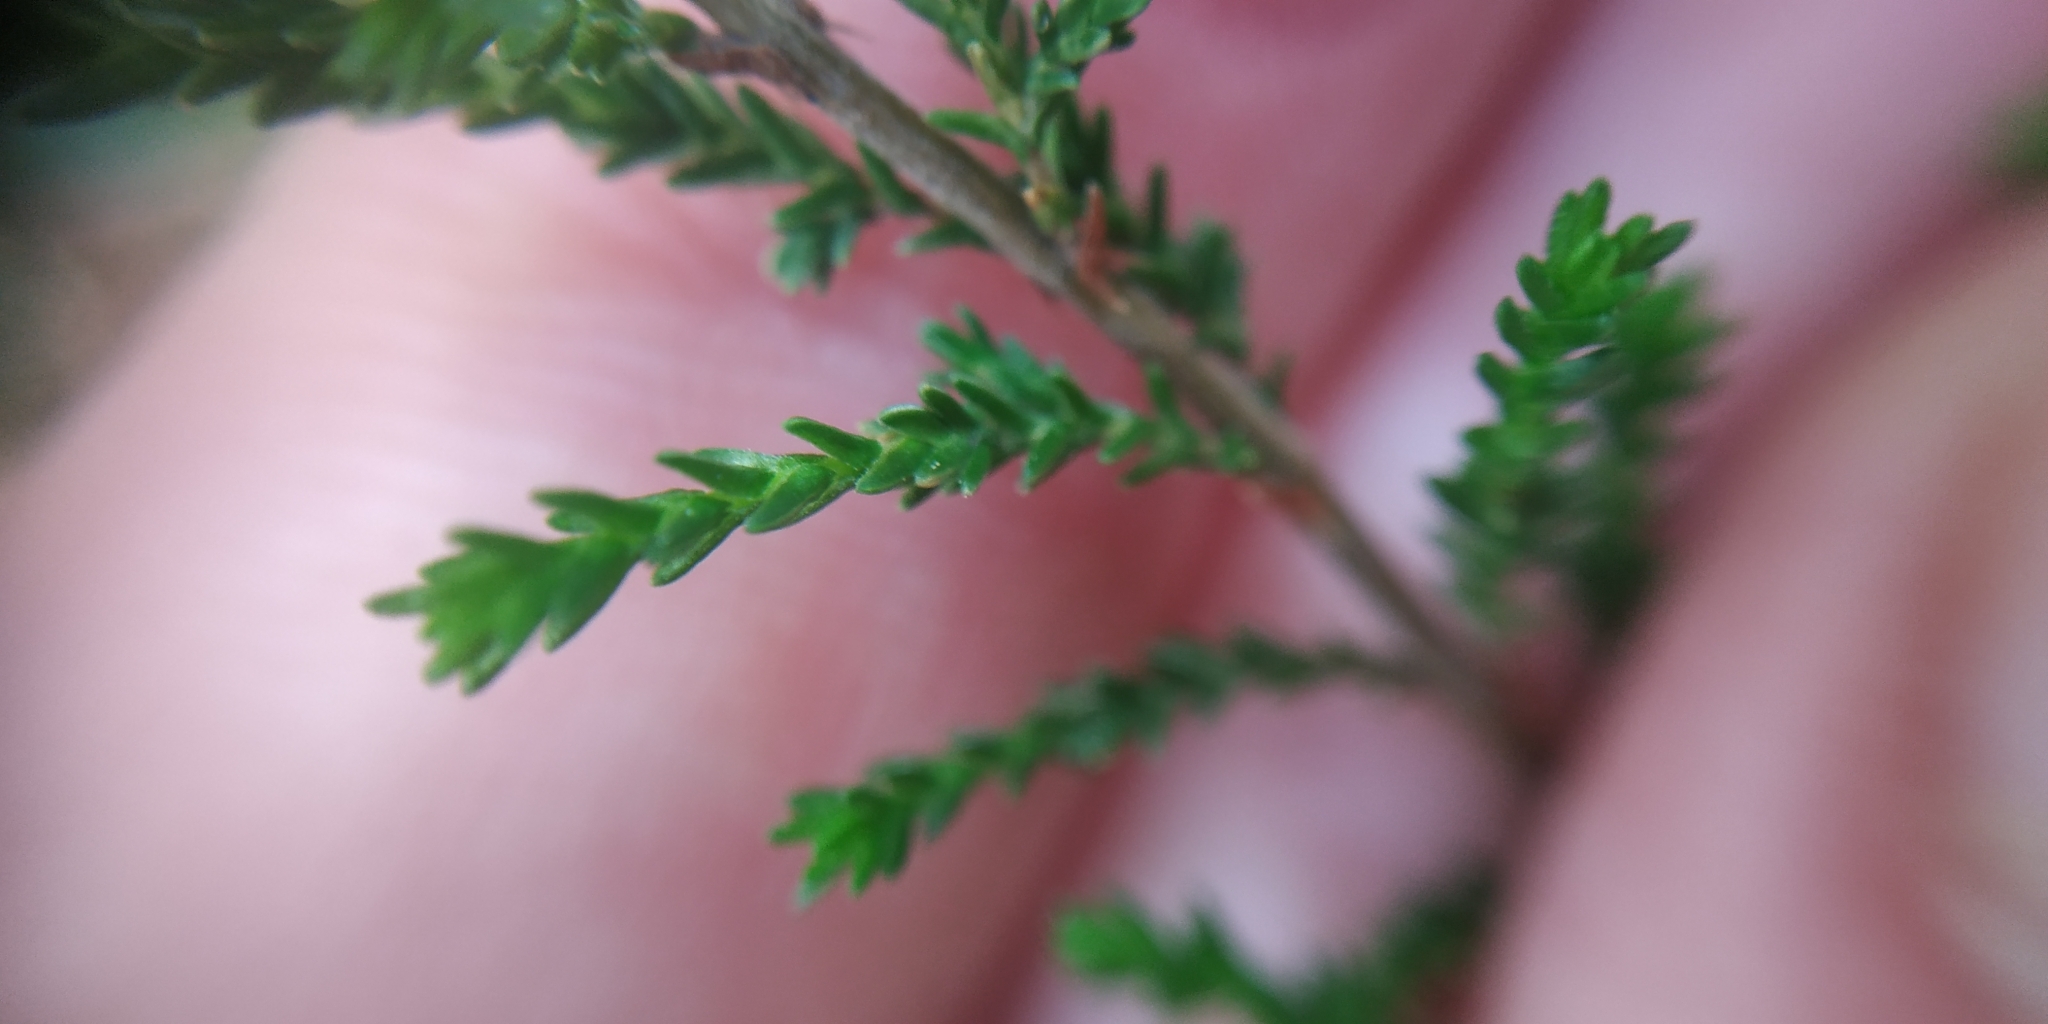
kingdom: Plantae
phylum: Tracheophyta
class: Magnoliopsida
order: Ericales
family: Ericaceae
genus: Calluna
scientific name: Calluna vulgaris
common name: Heather
